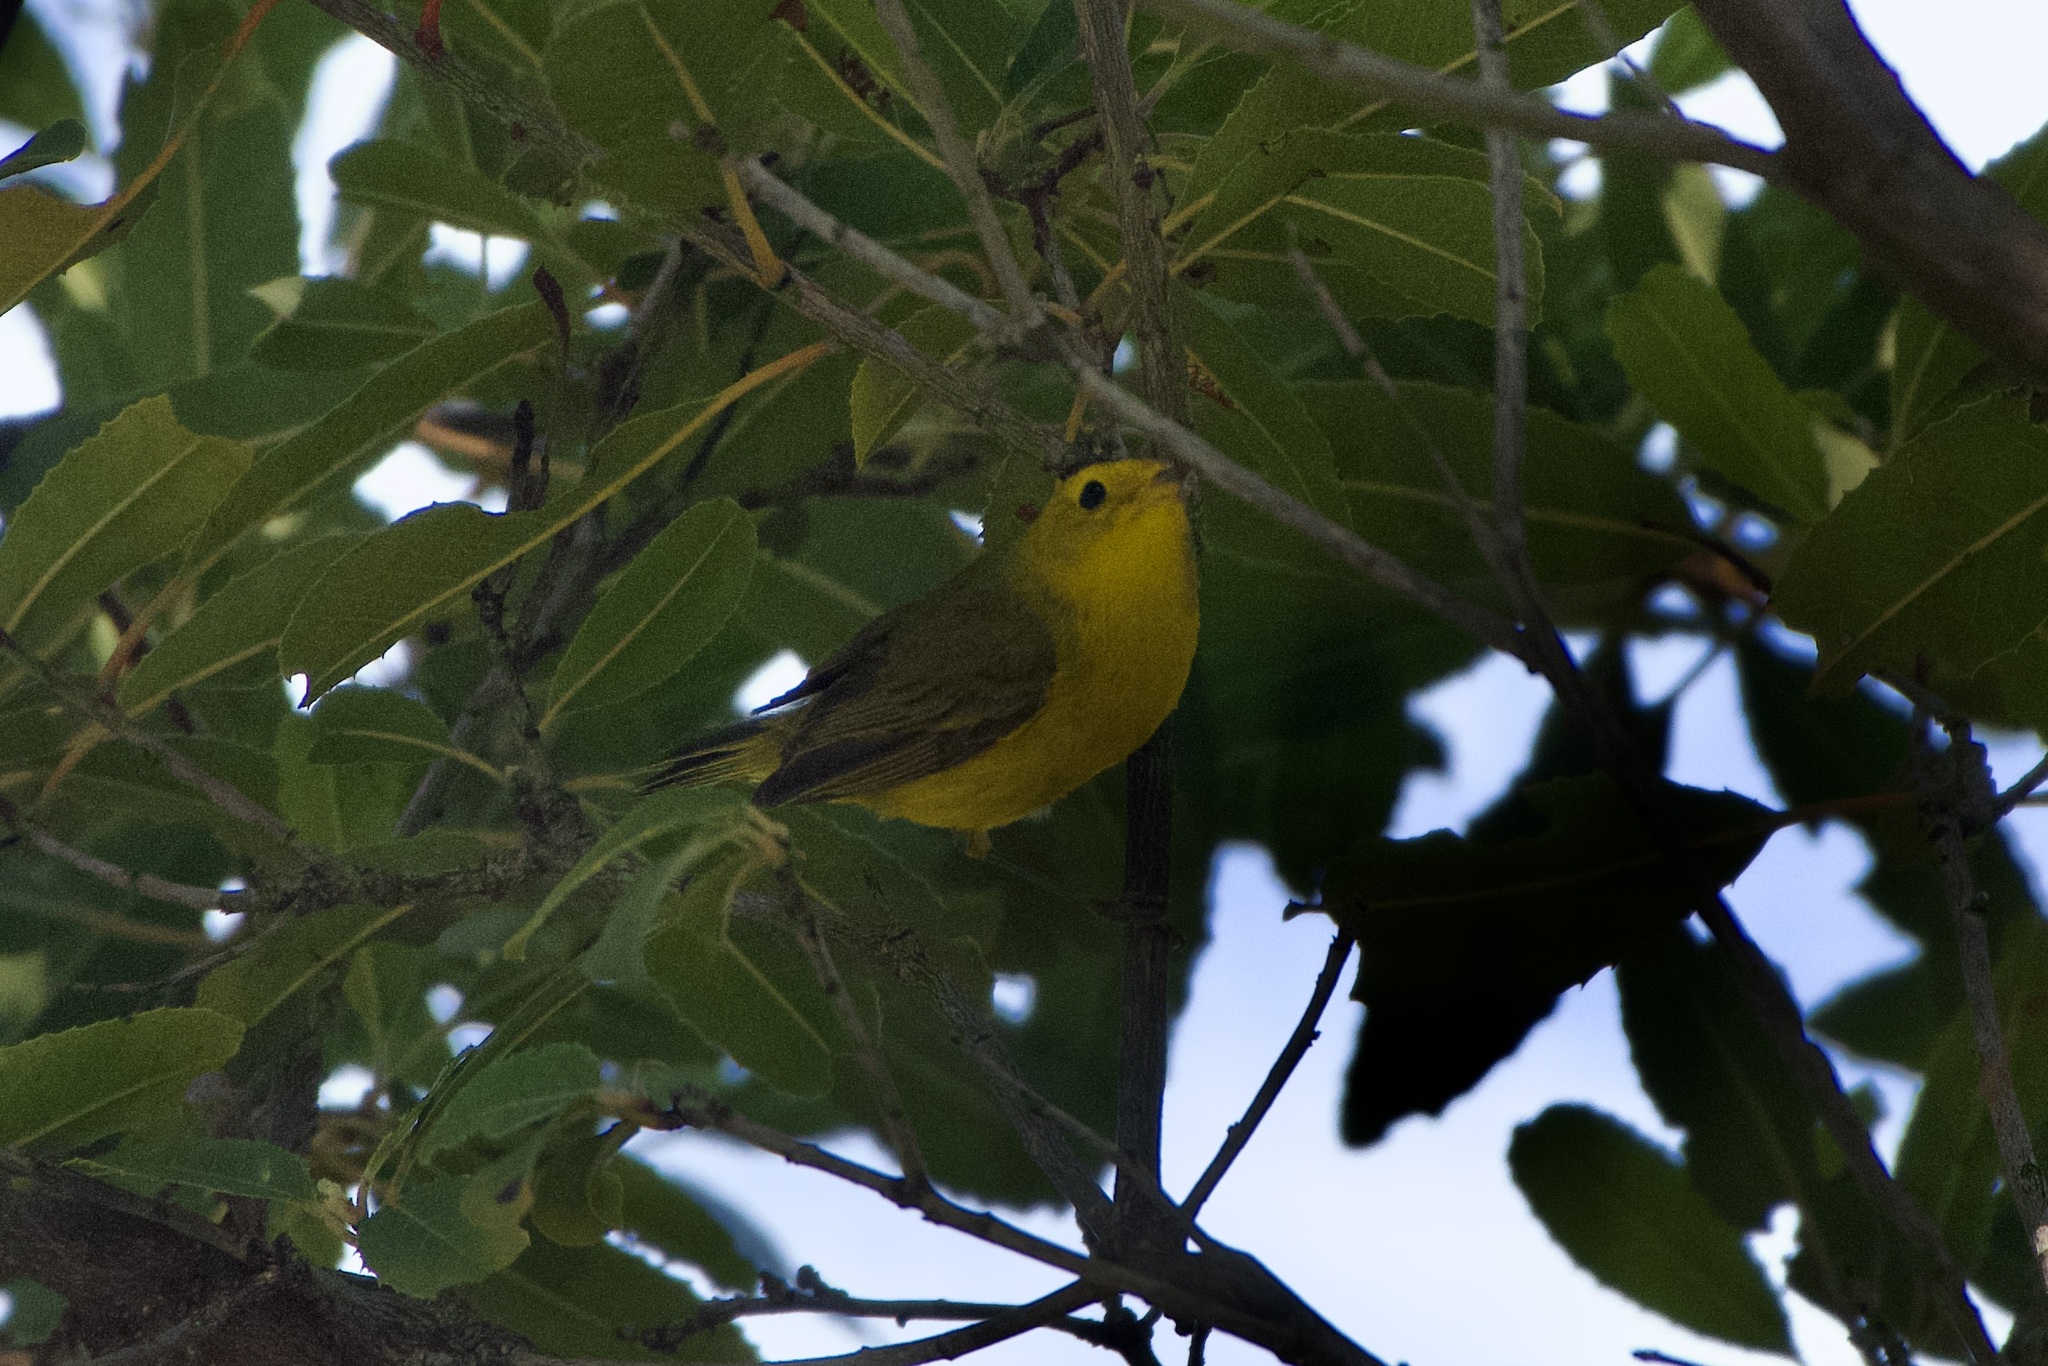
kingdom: Animalia
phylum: Chordata
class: Aves
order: Passeriformes
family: Parulidae
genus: Cardellina
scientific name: Cardellina pusilla
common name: Wilson's warbler
